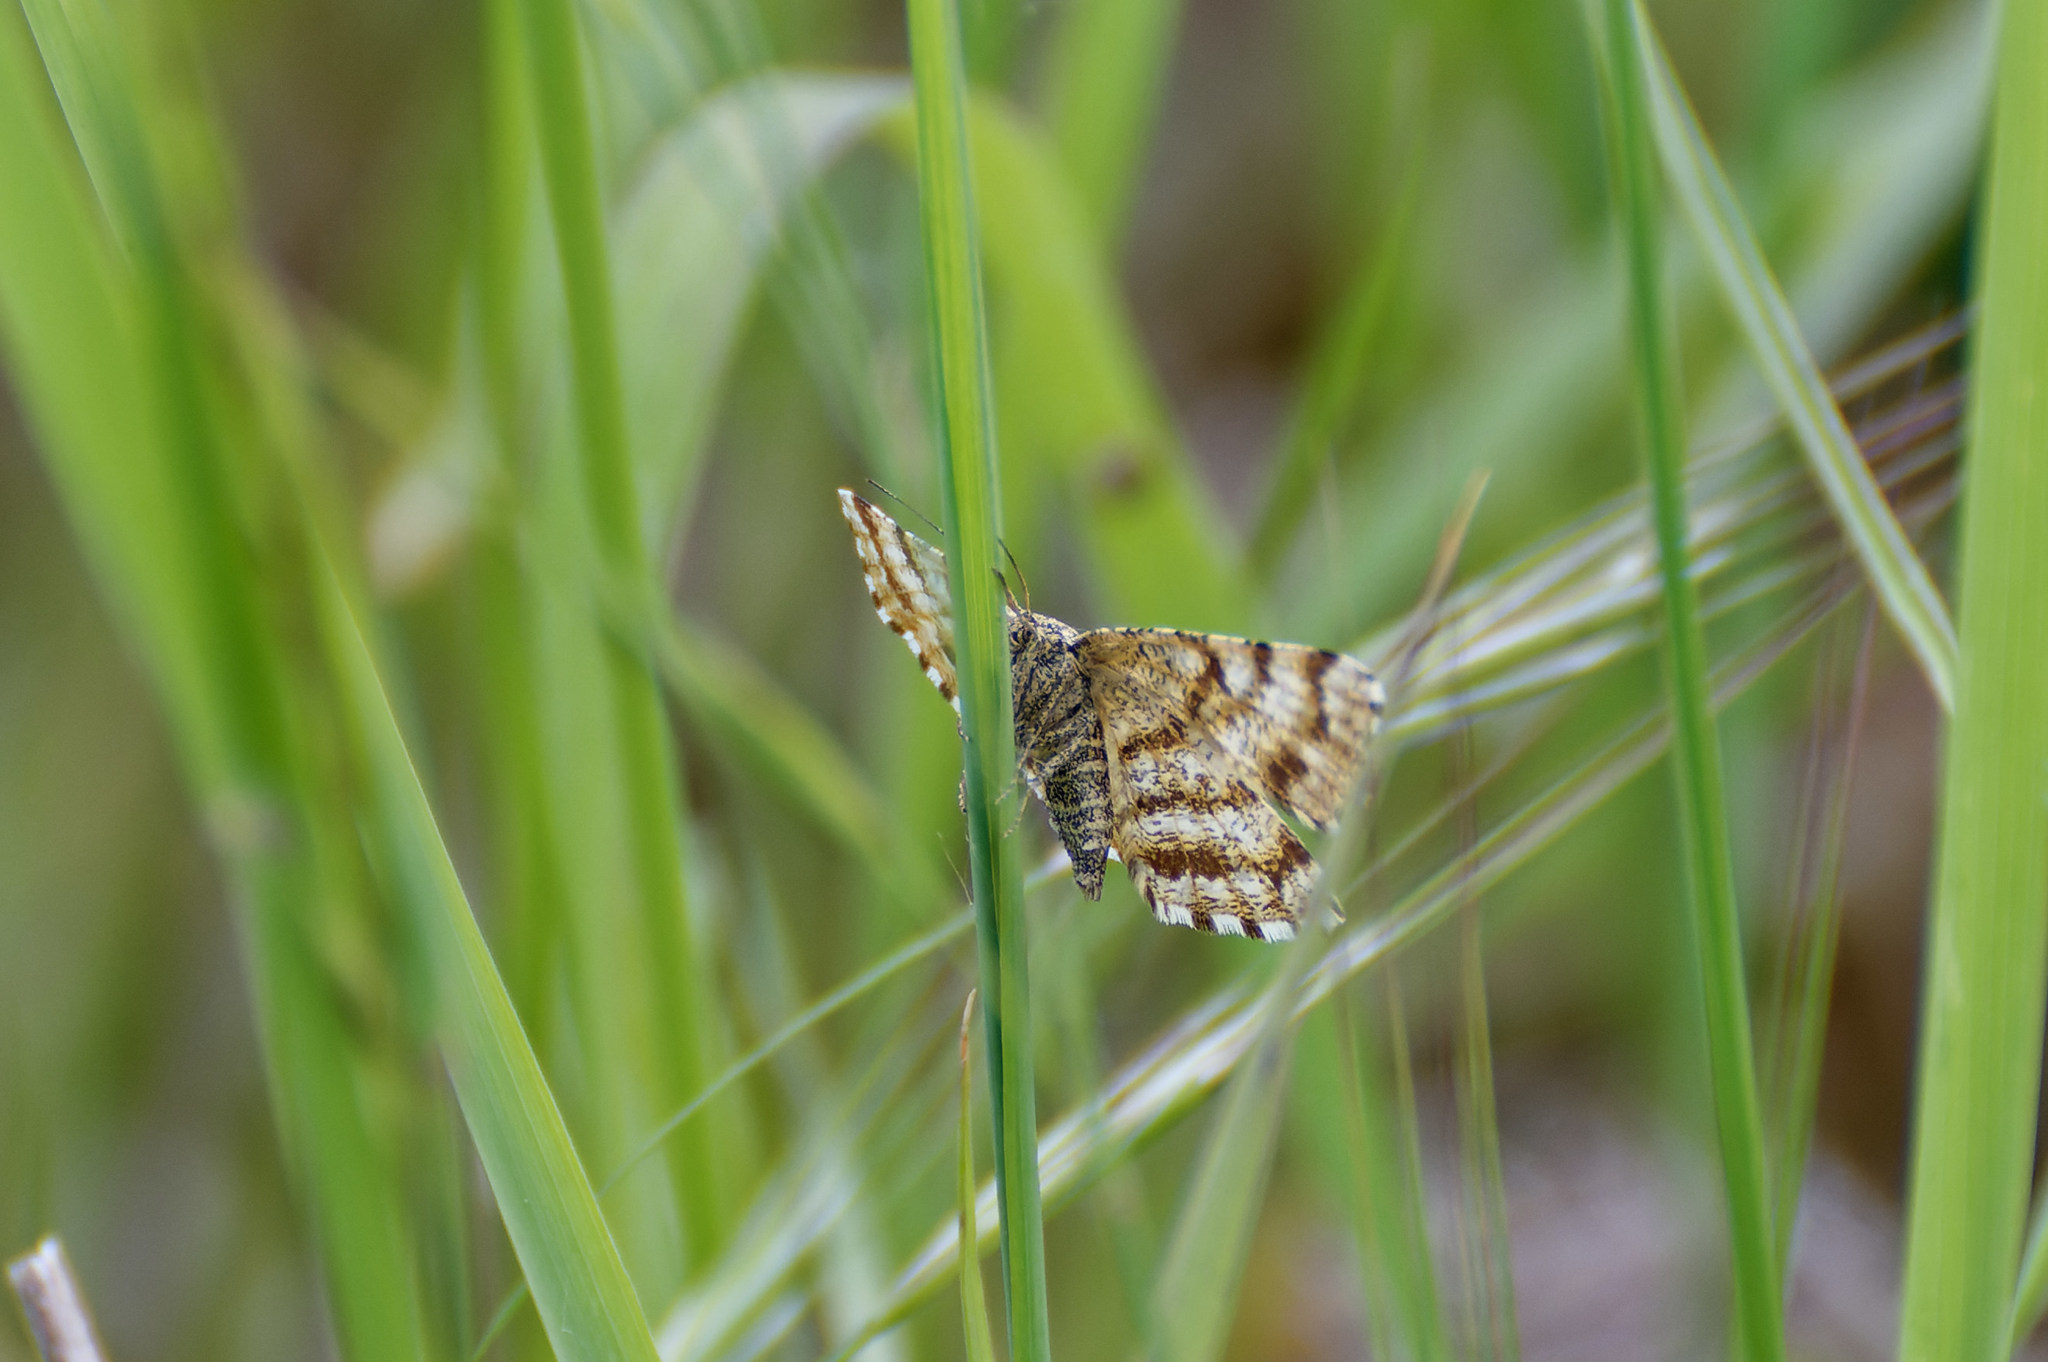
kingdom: Animalia
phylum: Arthropoda
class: Insecta
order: Lepidoptera
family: Geometridae
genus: Ematurga
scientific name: Ematurga atomaria
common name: Common heath
